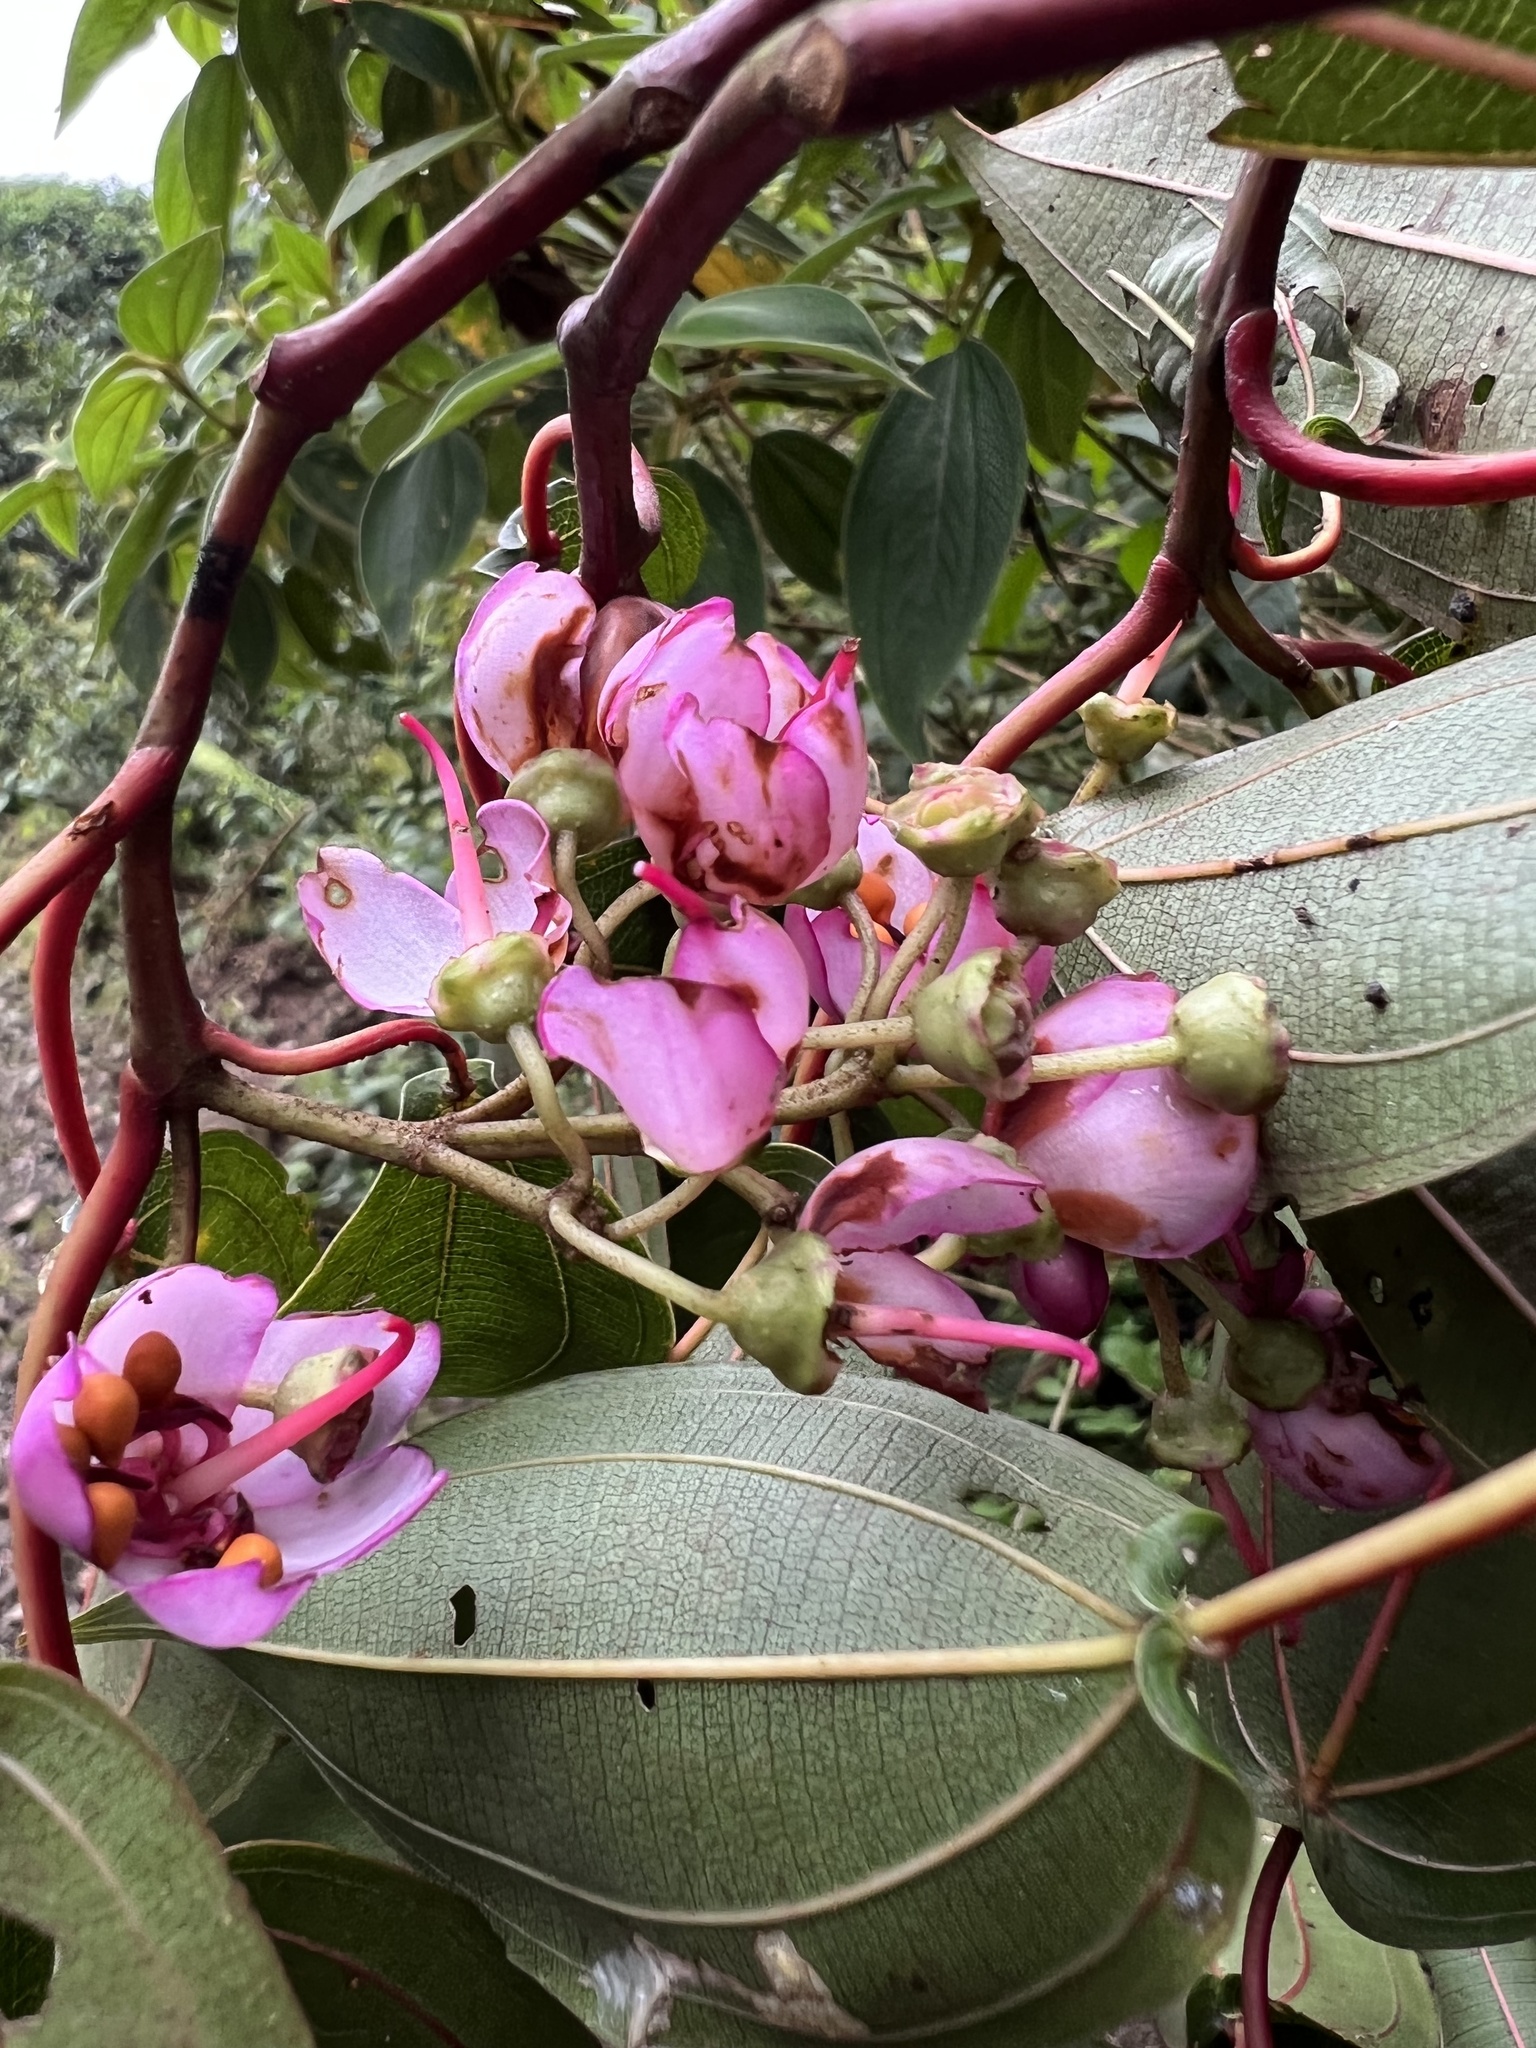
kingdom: Plantae
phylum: Tracheophyta
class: Magnoliopsida
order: Myrtales
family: Melastomataceae
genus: Axinaea
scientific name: Axinaea scutigera
